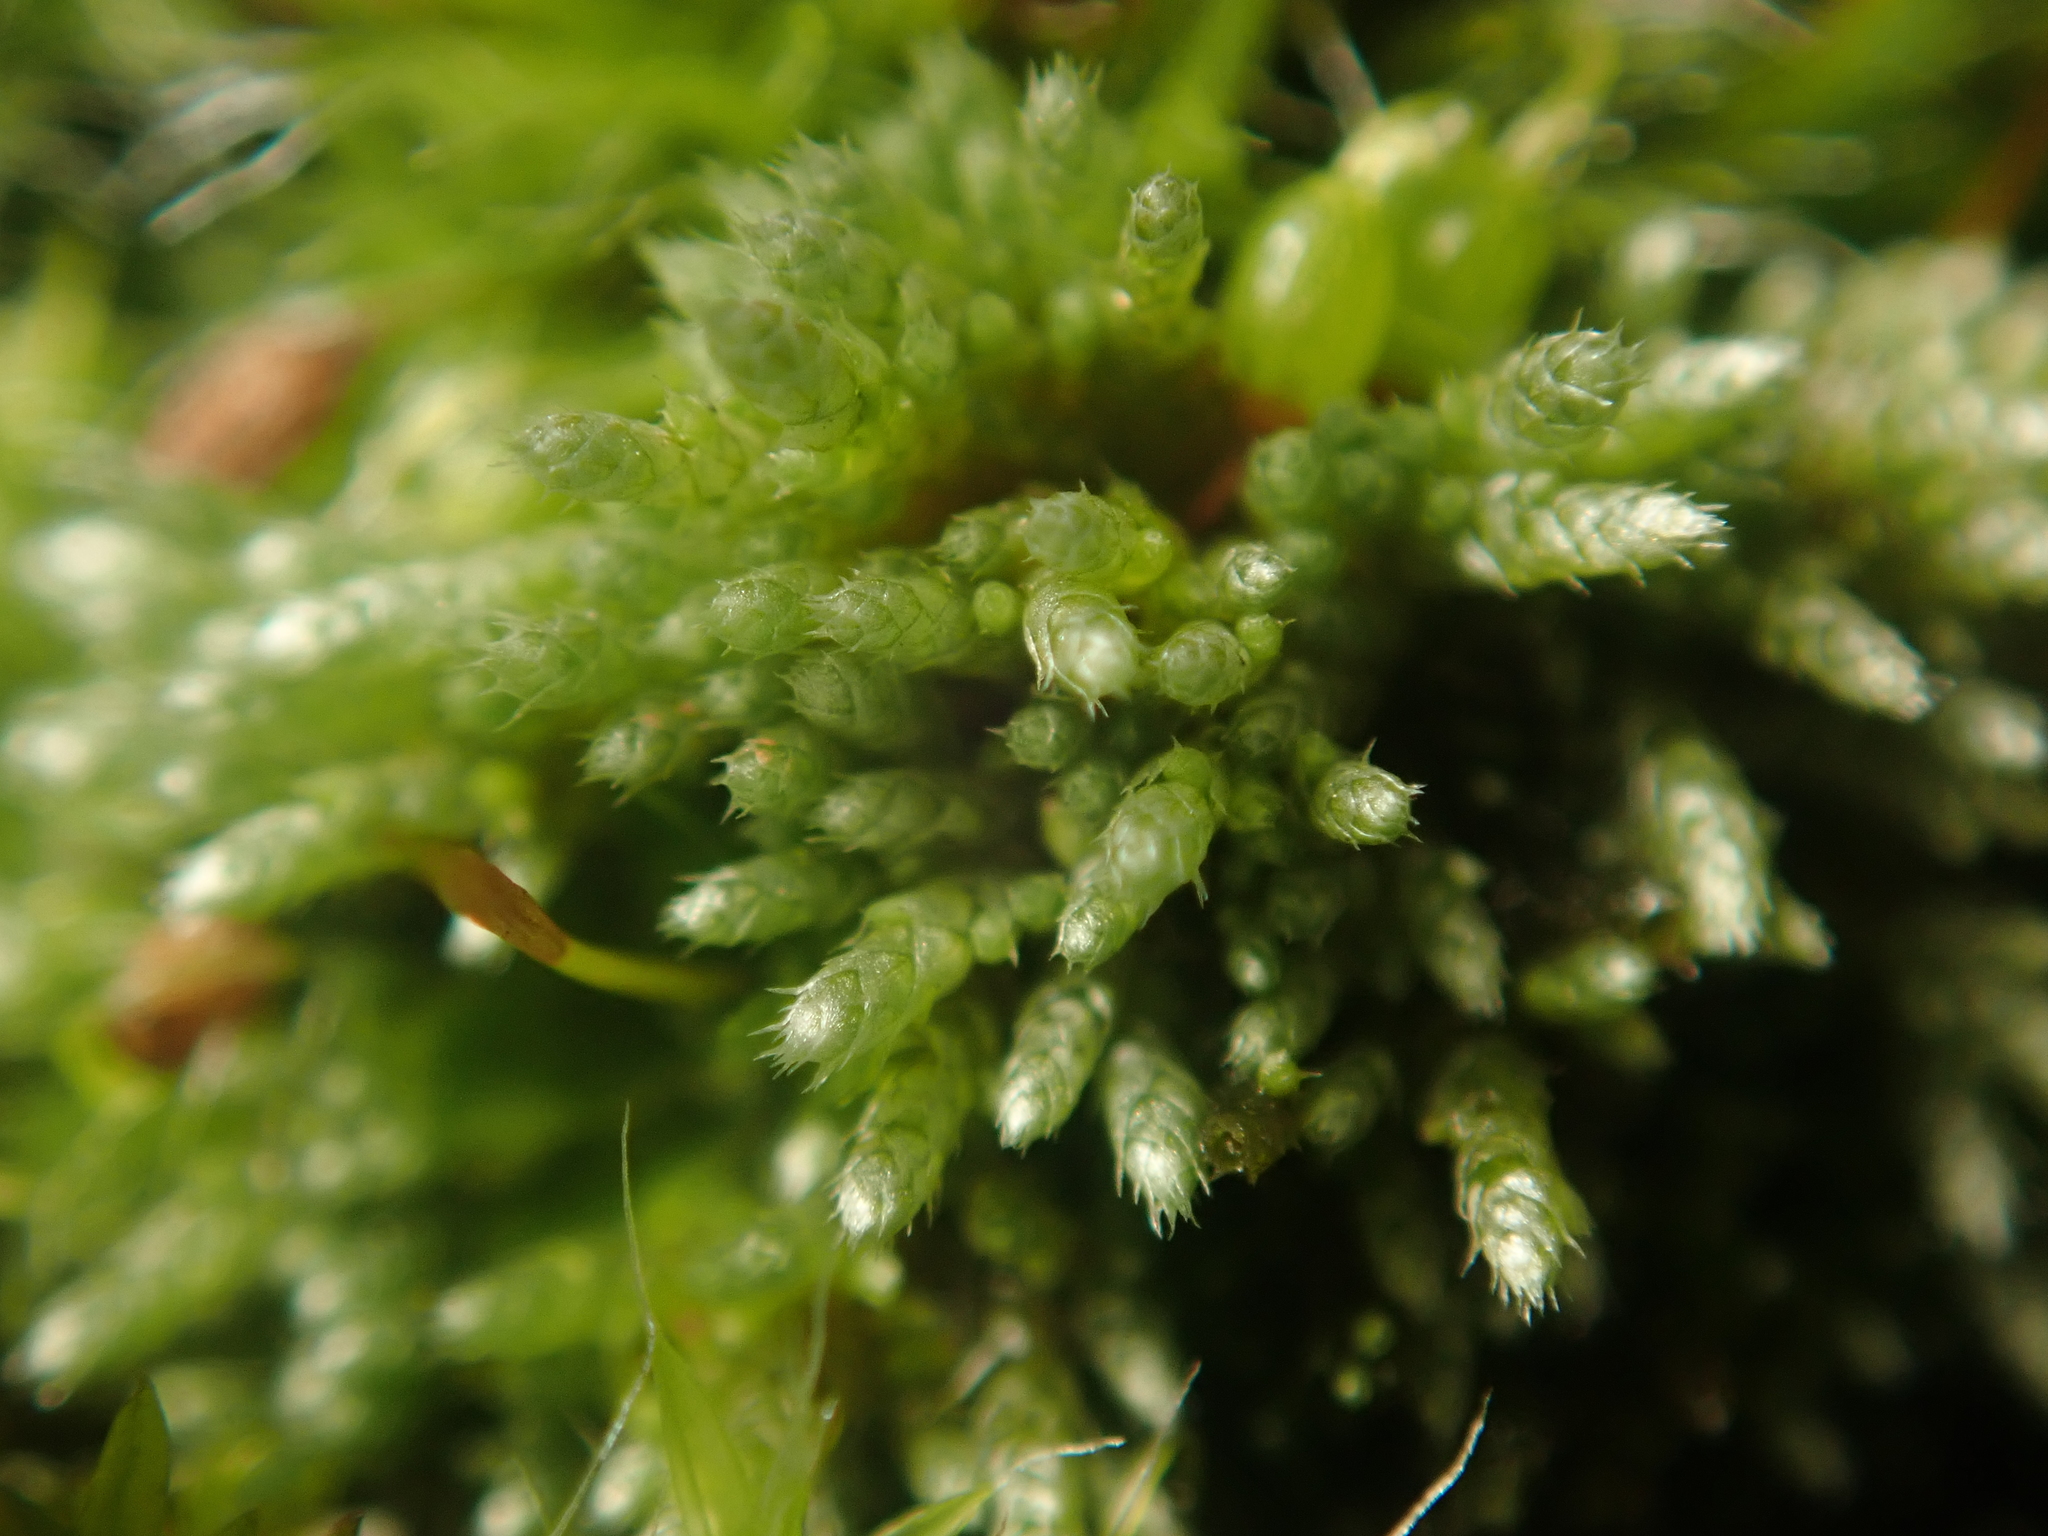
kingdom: Plantae
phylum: Bryophyta
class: Bryopsida
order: Bryales
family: Bryaceae
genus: Bryum
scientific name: Bryum argenteum
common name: Silver-moss
